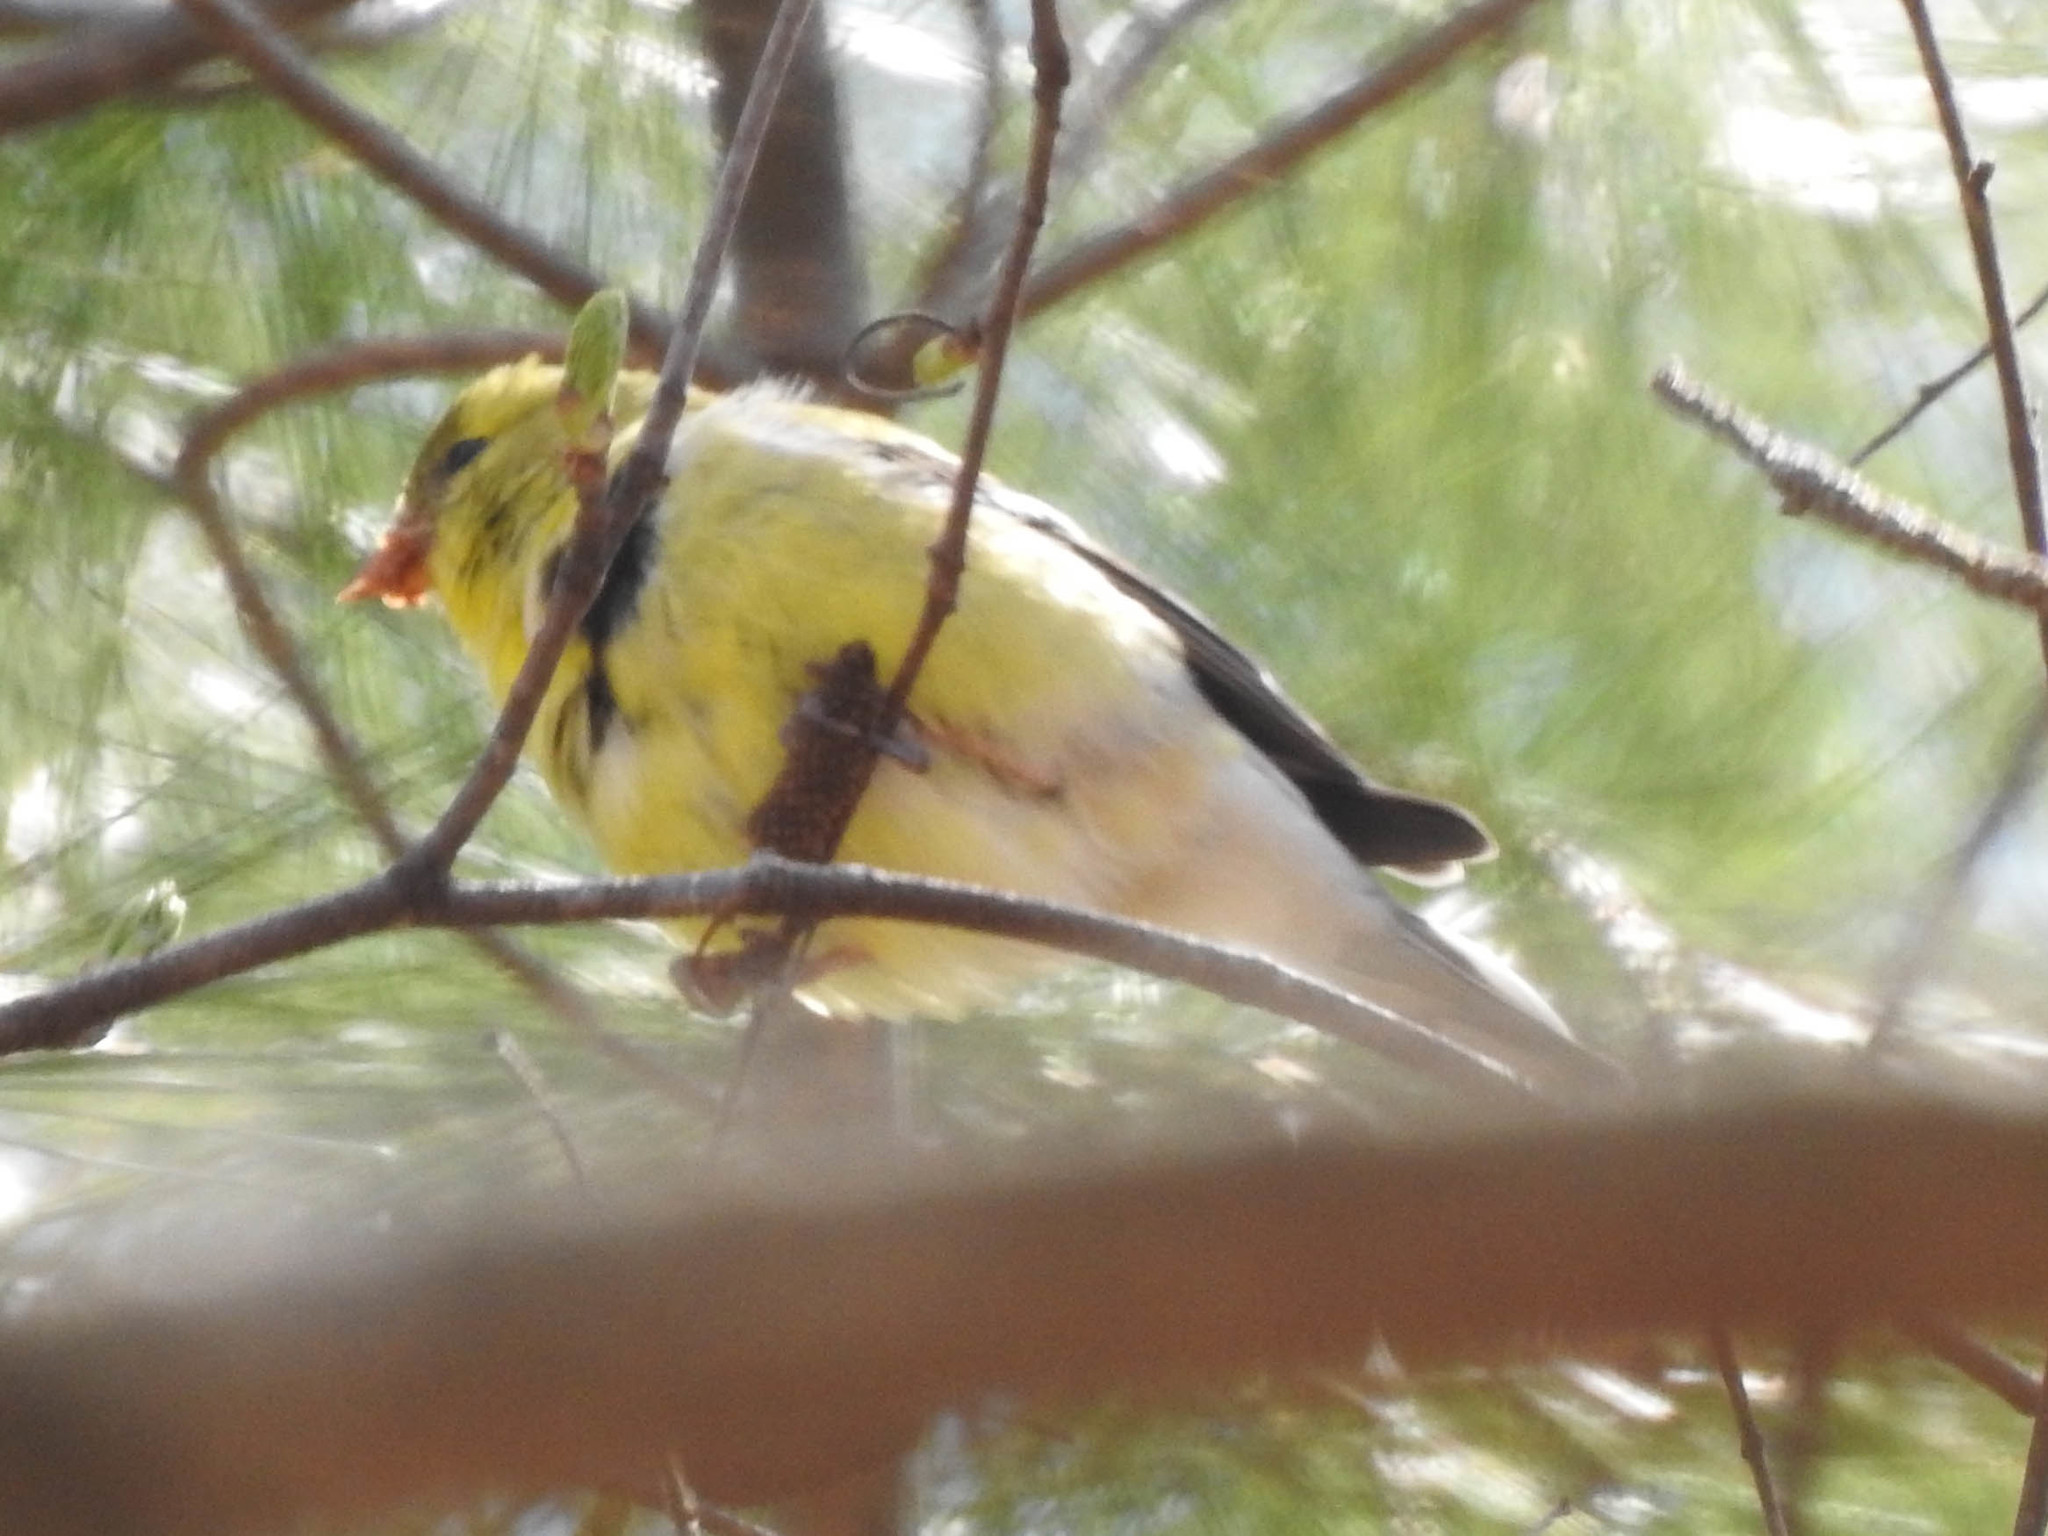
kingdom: Animalia
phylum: Chordata
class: Aves
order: Passeriformes
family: Fringillidae
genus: Spinus
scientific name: Spinus tristis
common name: American goldfinch
